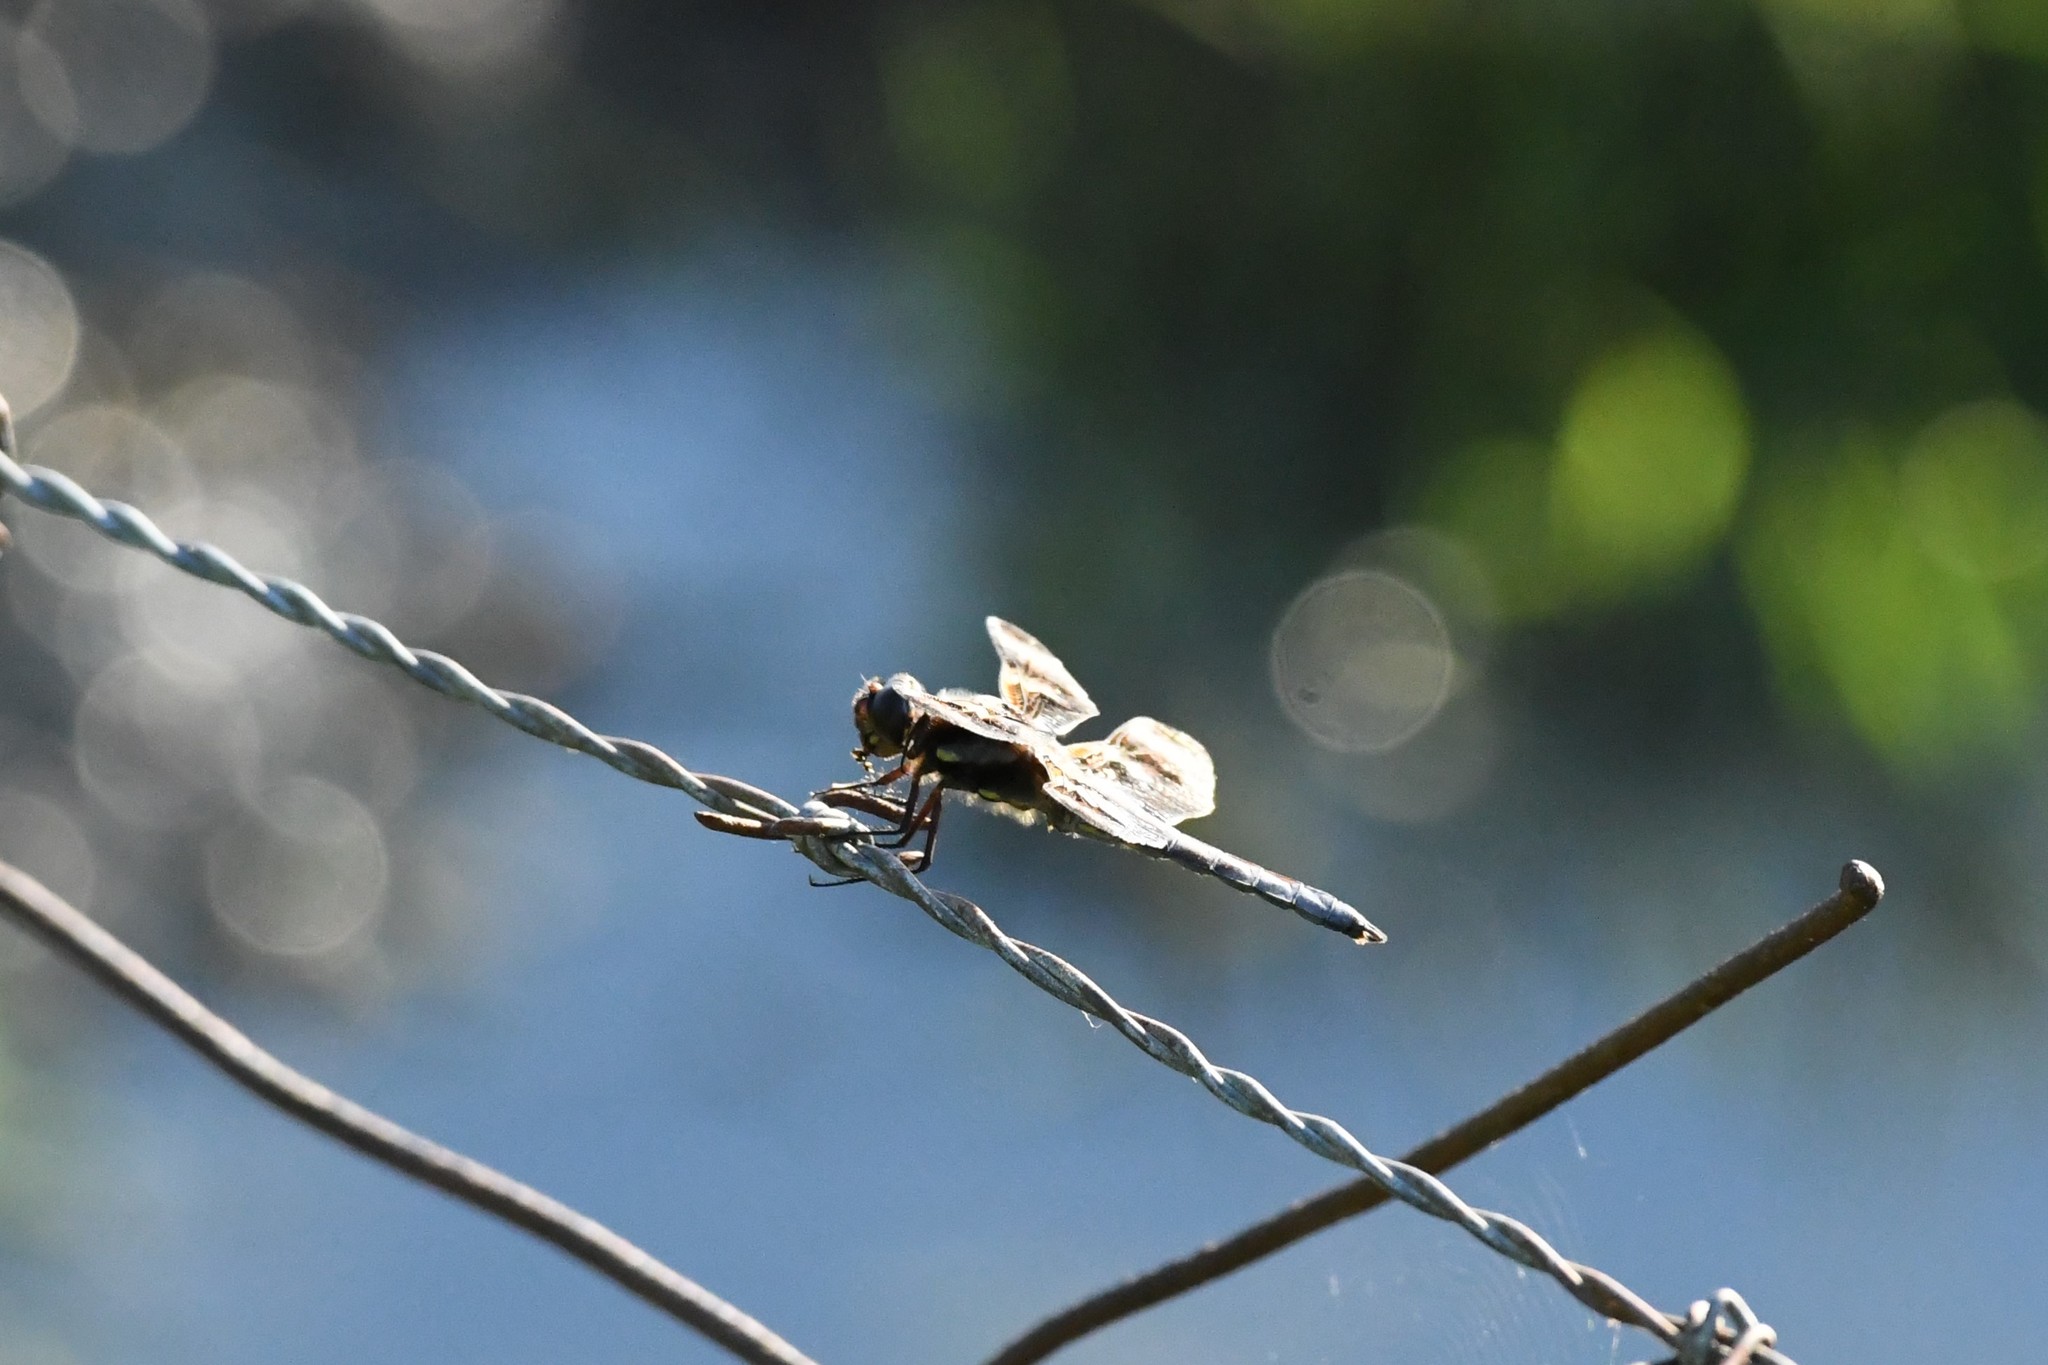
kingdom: Animalia
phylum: Arthropoda
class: Insecta
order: Odonata
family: Libellulidae
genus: Libellula
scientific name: Libellula pulchella
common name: Twelve-spotted skimmer
